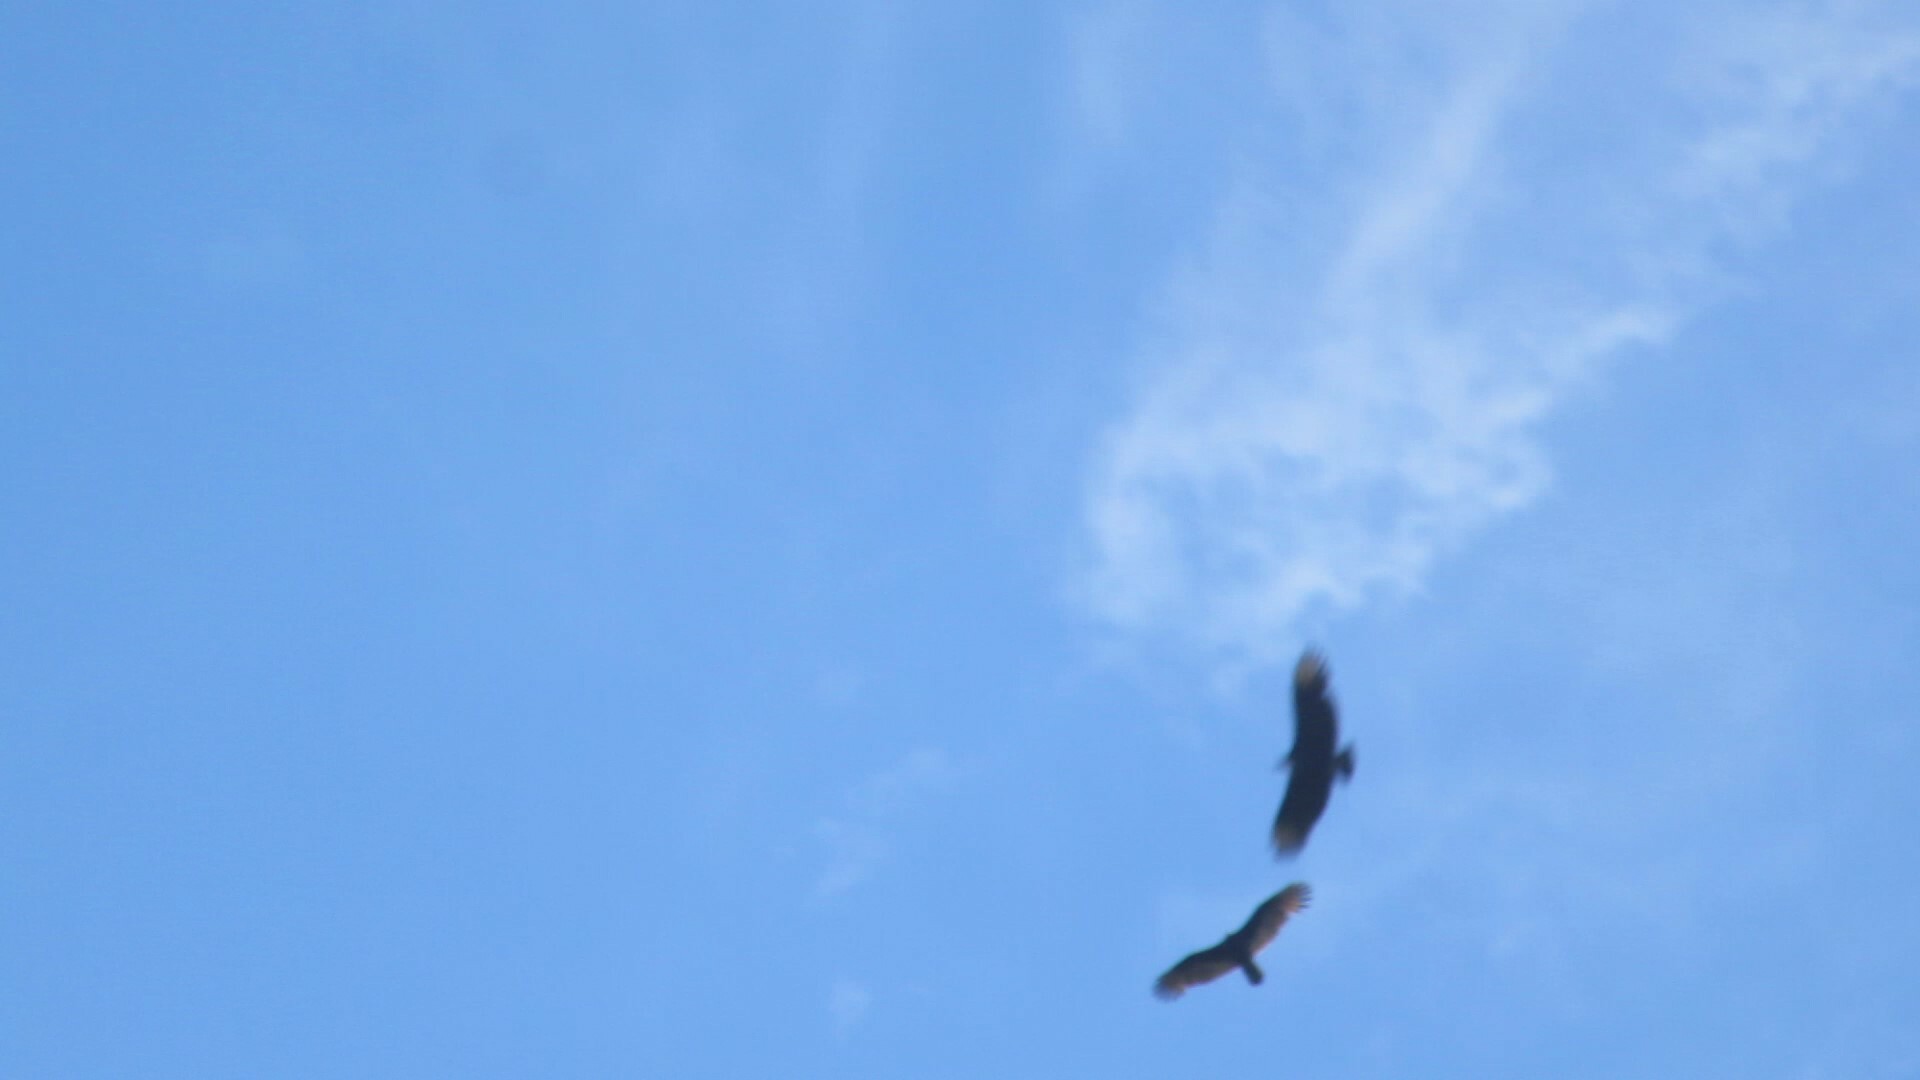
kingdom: Animalia
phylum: Chordata
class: Aves
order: Accipitriformes
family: Cathartidae
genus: Cathartes
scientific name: Cathartes aura
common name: Turkey vulture
